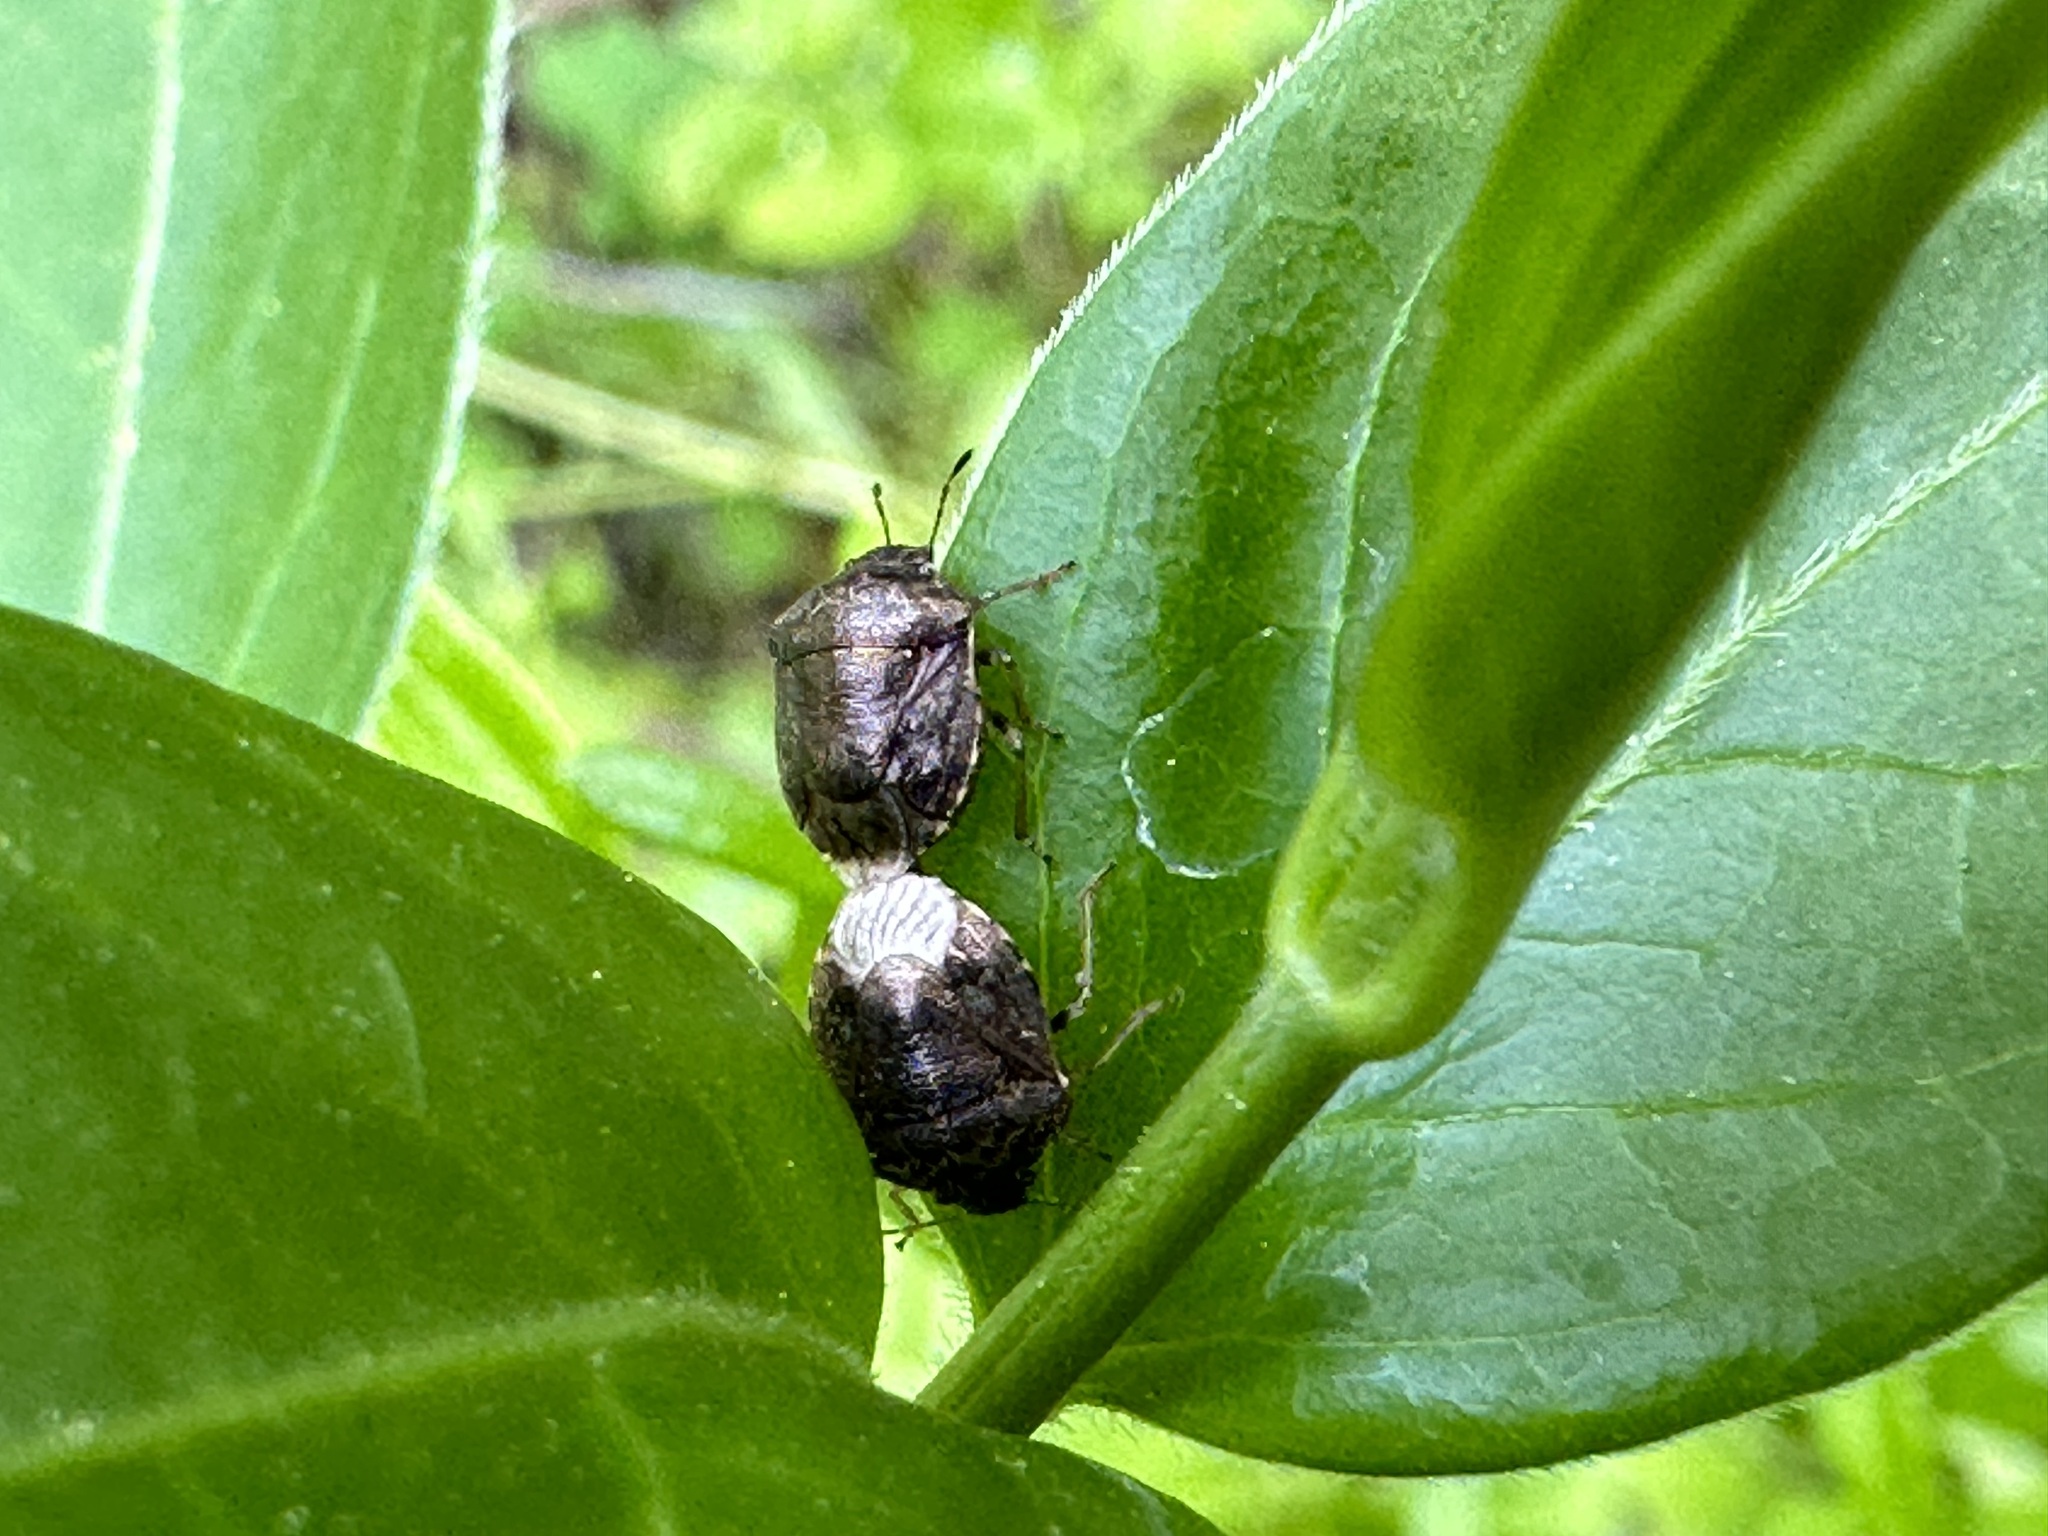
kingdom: Animalia
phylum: Arthropoda
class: Insecta
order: Hemiptera
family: Pentatomidae
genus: Cosmopepla
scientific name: Cosmopepla intergressus
